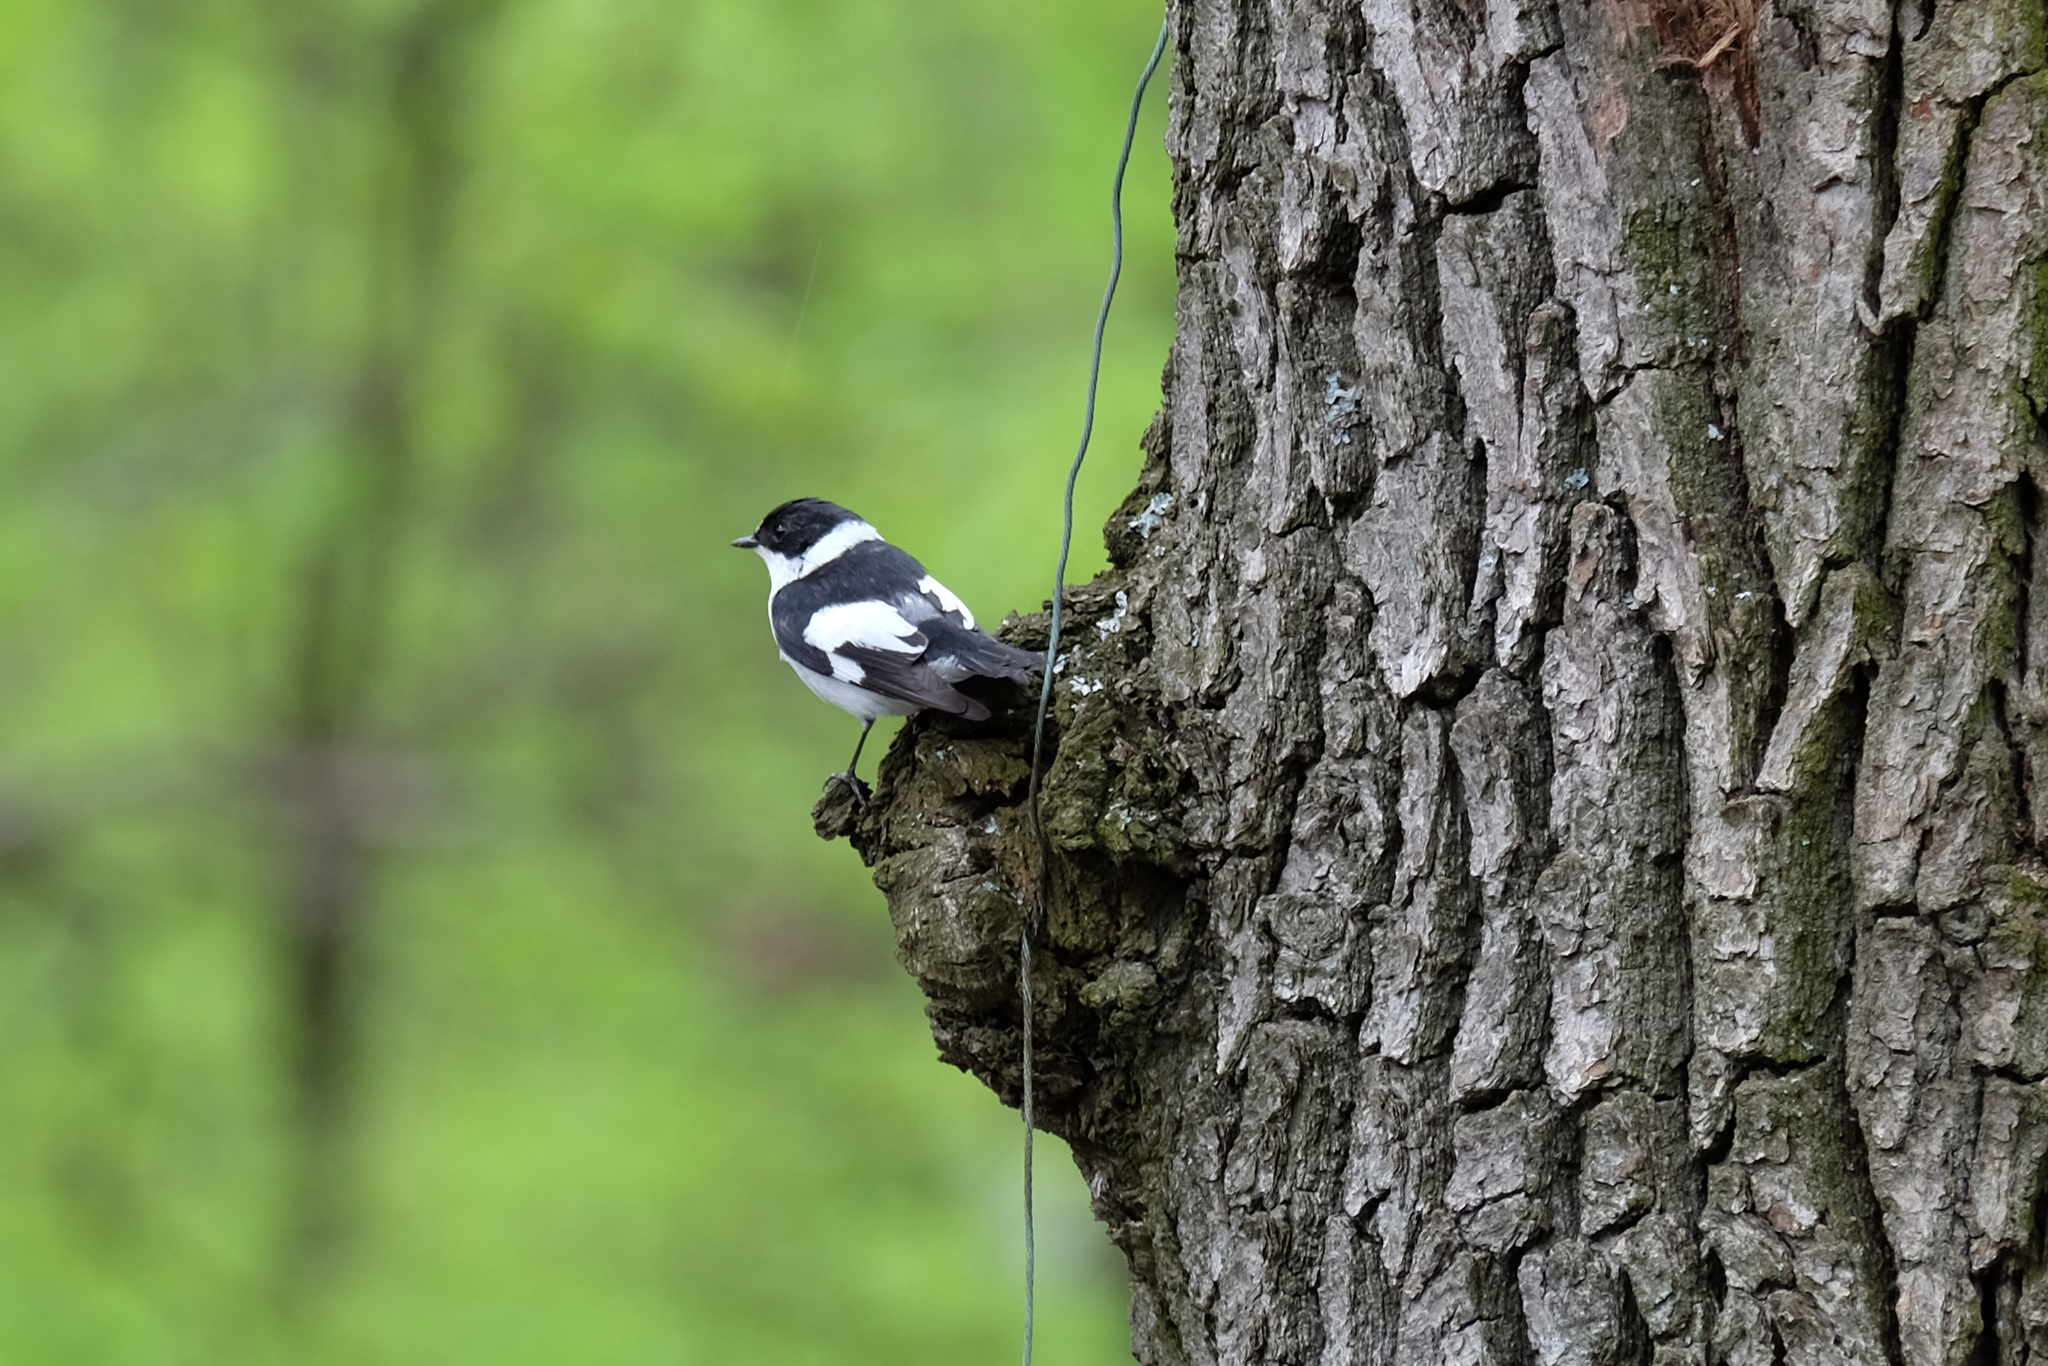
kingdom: Animalia
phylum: Chordata
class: Aves
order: Passeriformes
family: Muscicapidae
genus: Ficedula
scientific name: Ficedula albicollis
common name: Collared flycatcher
